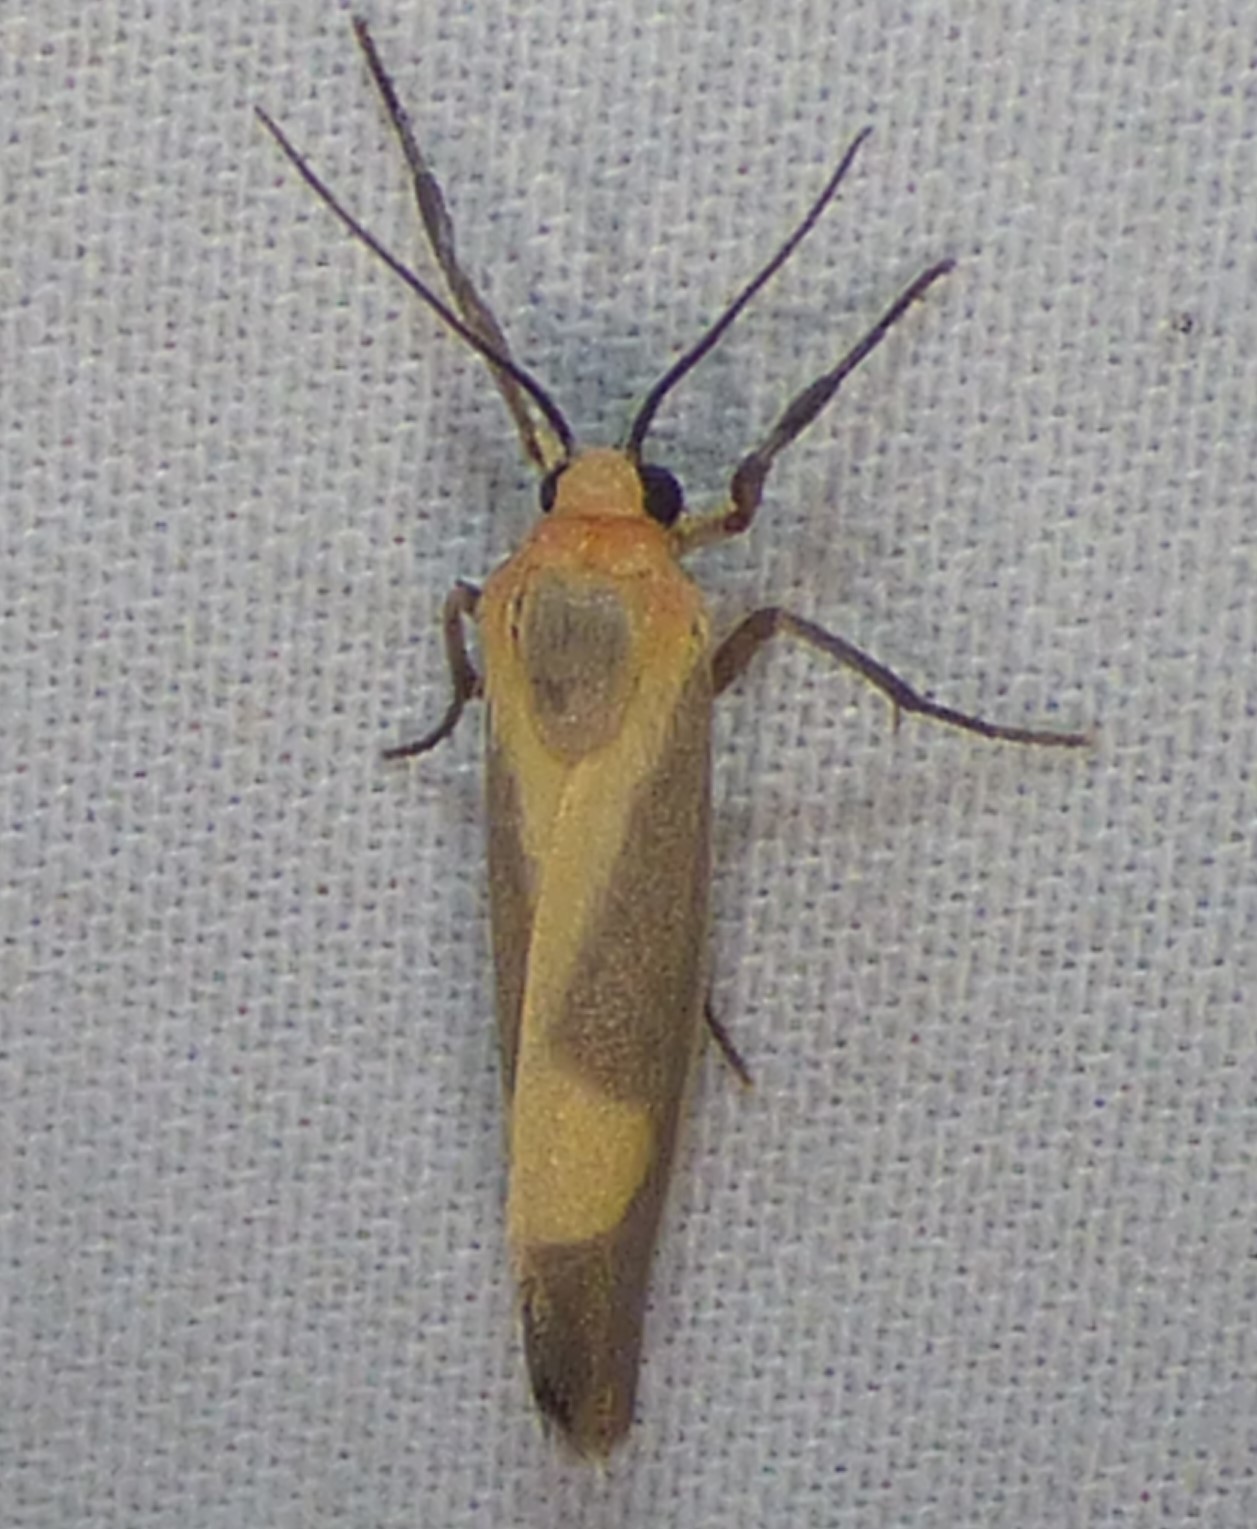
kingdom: Animalia
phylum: Arthropoda
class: Insecta
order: Lepidoptera
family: Erebidae
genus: Cisthene
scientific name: Cisthene plumbea
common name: Lead colored lichen moth
